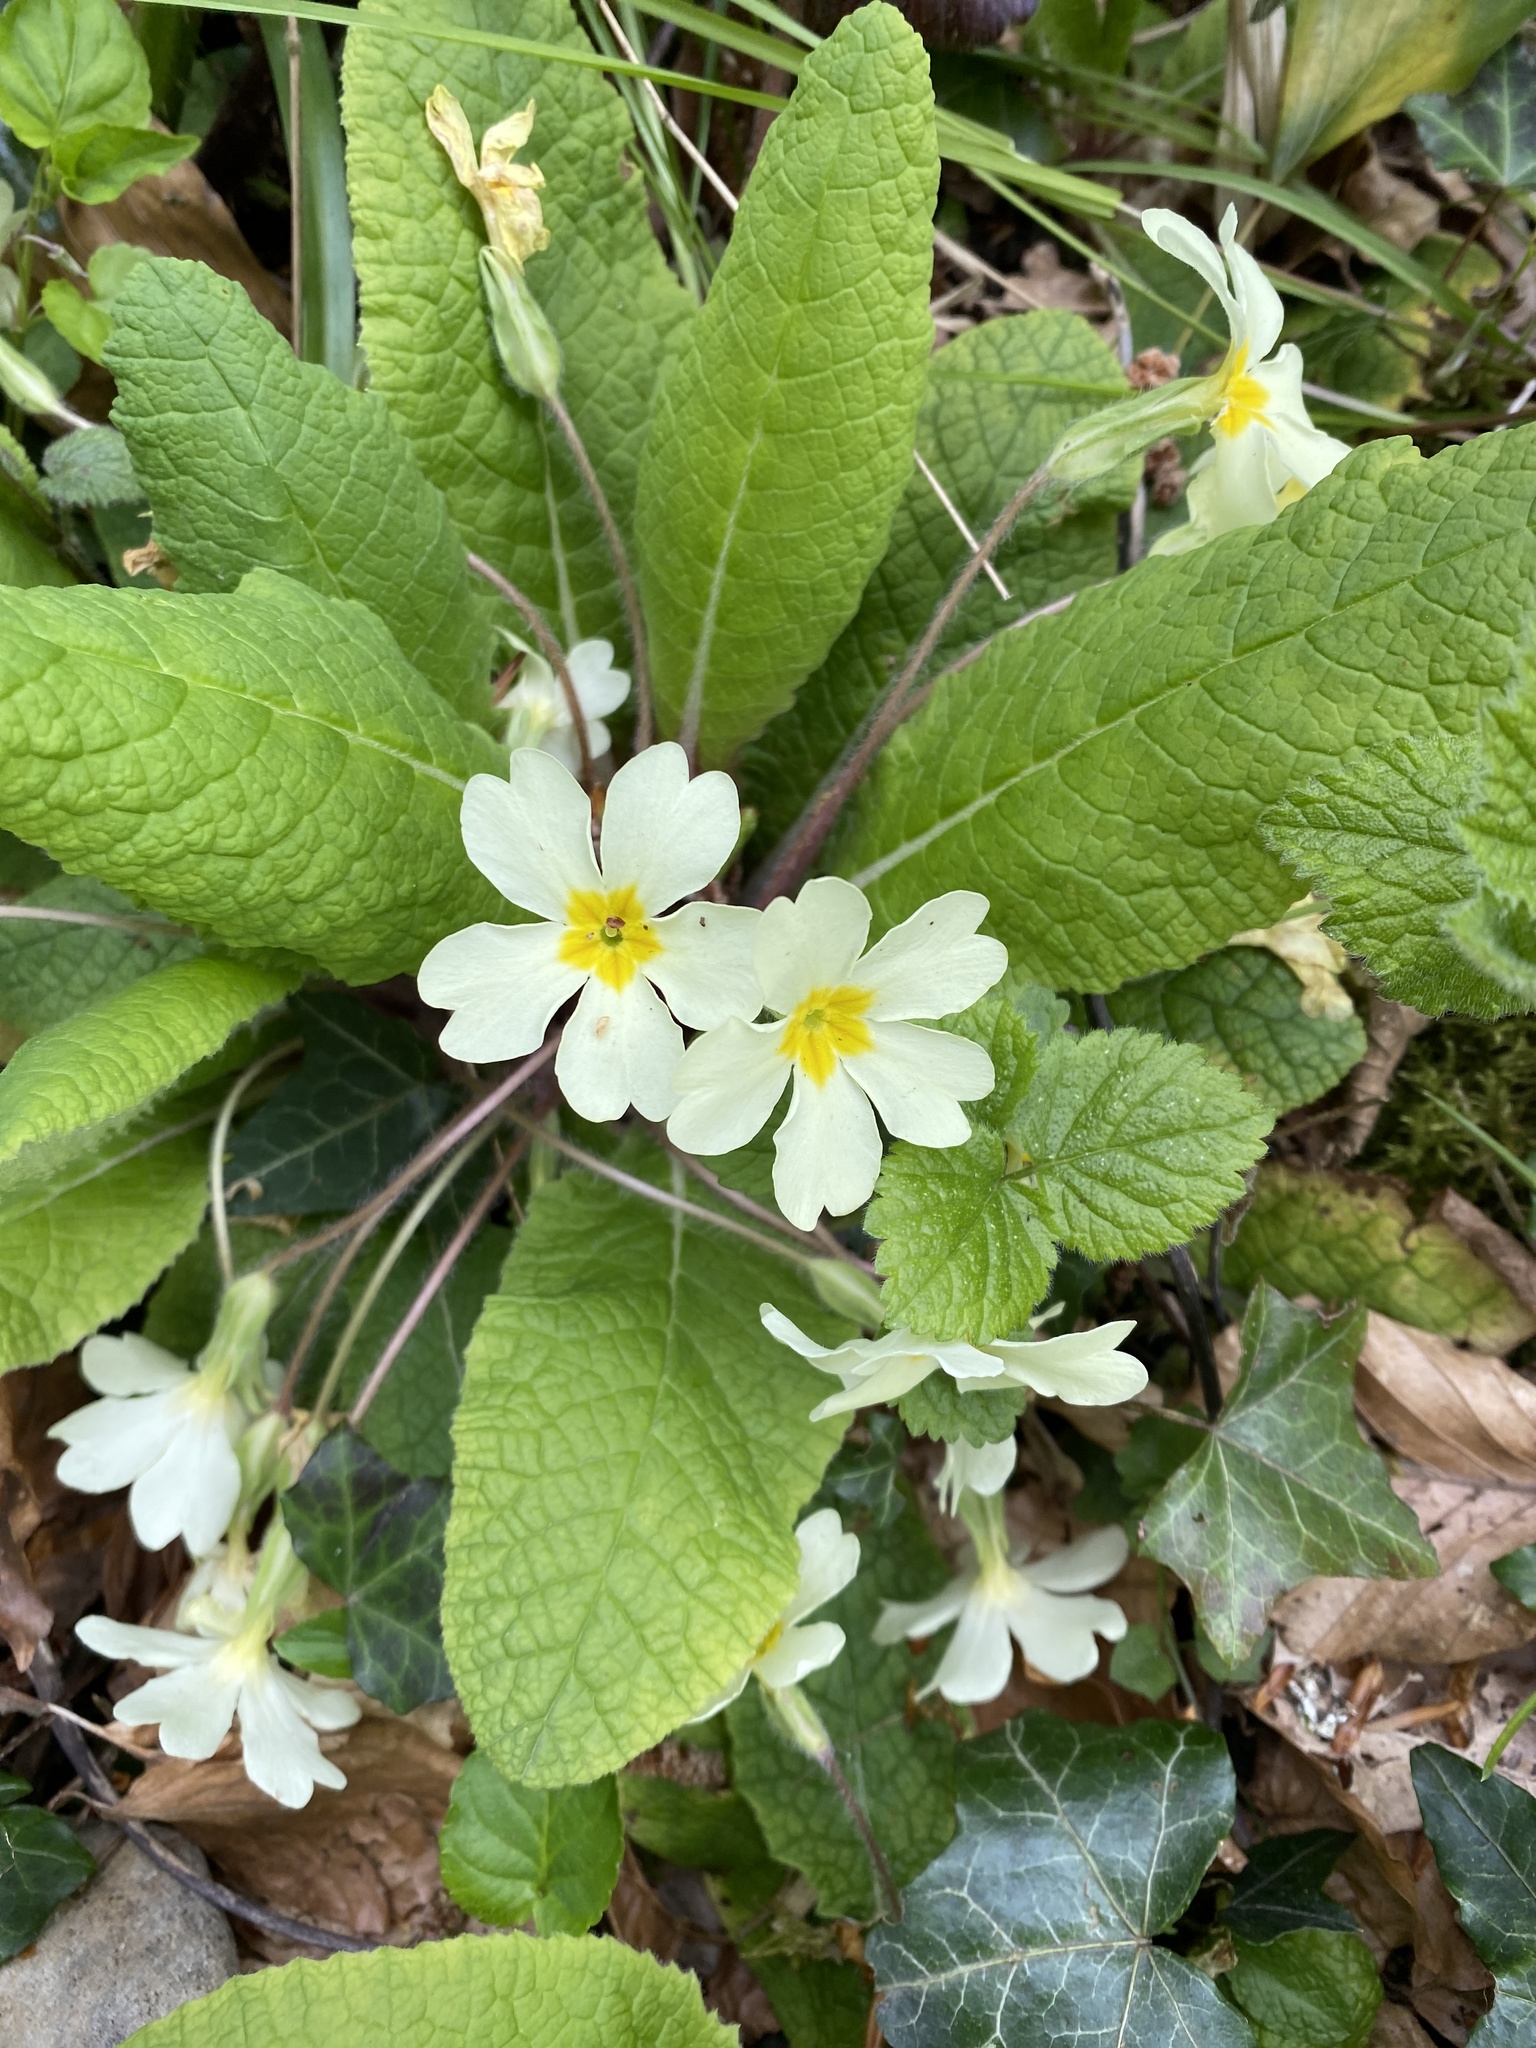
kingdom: Plantae
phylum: Tracheophyta
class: Magnoliopsida
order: Ericales
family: Primulaceae
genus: Primula
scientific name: Primula vulgaris
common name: Primrose
